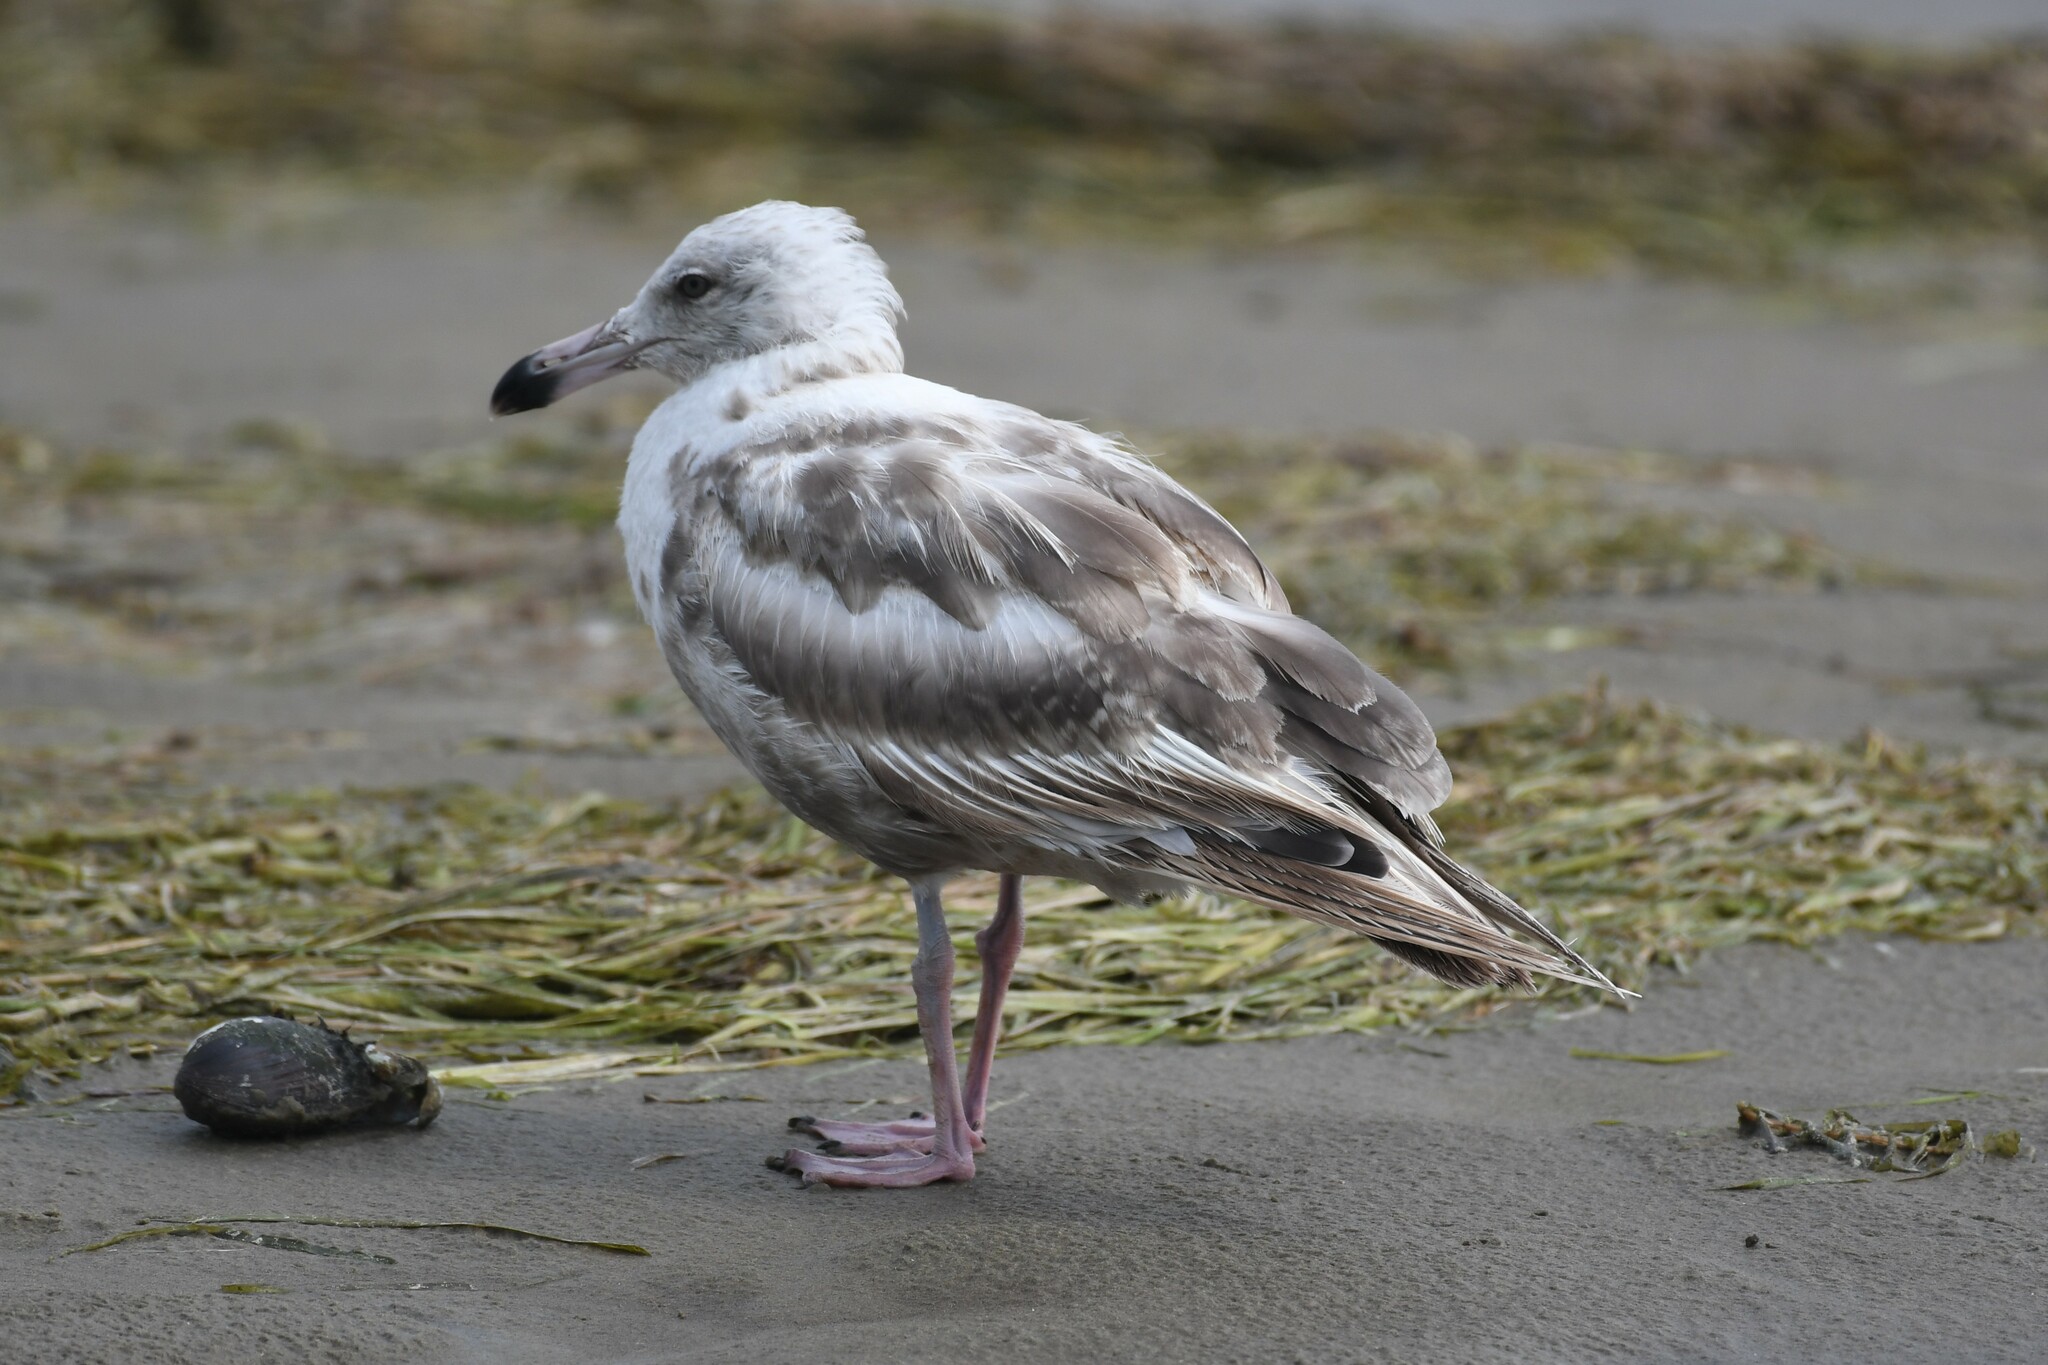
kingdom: Animalia
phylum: Chordata
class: Aves
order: Charadriiformes
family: Laridae
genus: Larus
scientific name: Larus argentatus
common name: Herring gull
